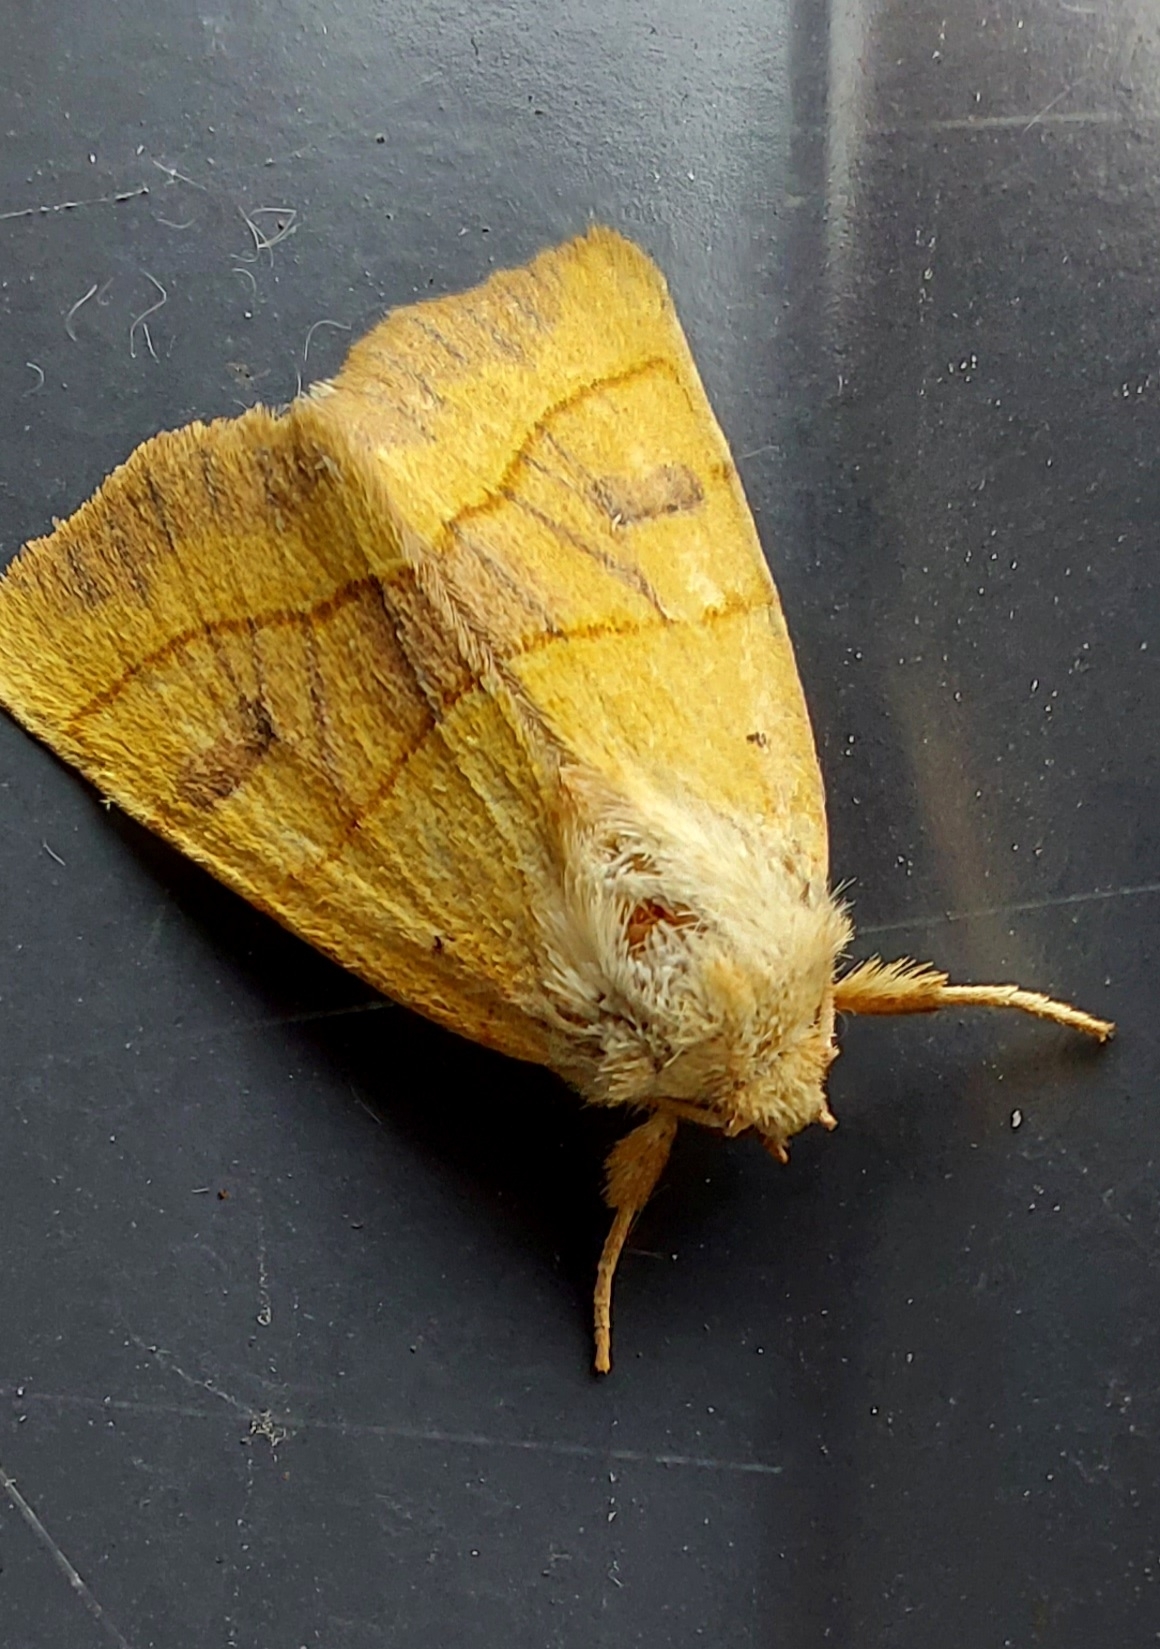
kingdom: Animalia
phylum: Arthropoda
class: Insecta
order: Lepidoptera
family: Noctuidae
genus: Atethmia
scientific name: Atethmia centrago
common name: Centre-barred sallow
